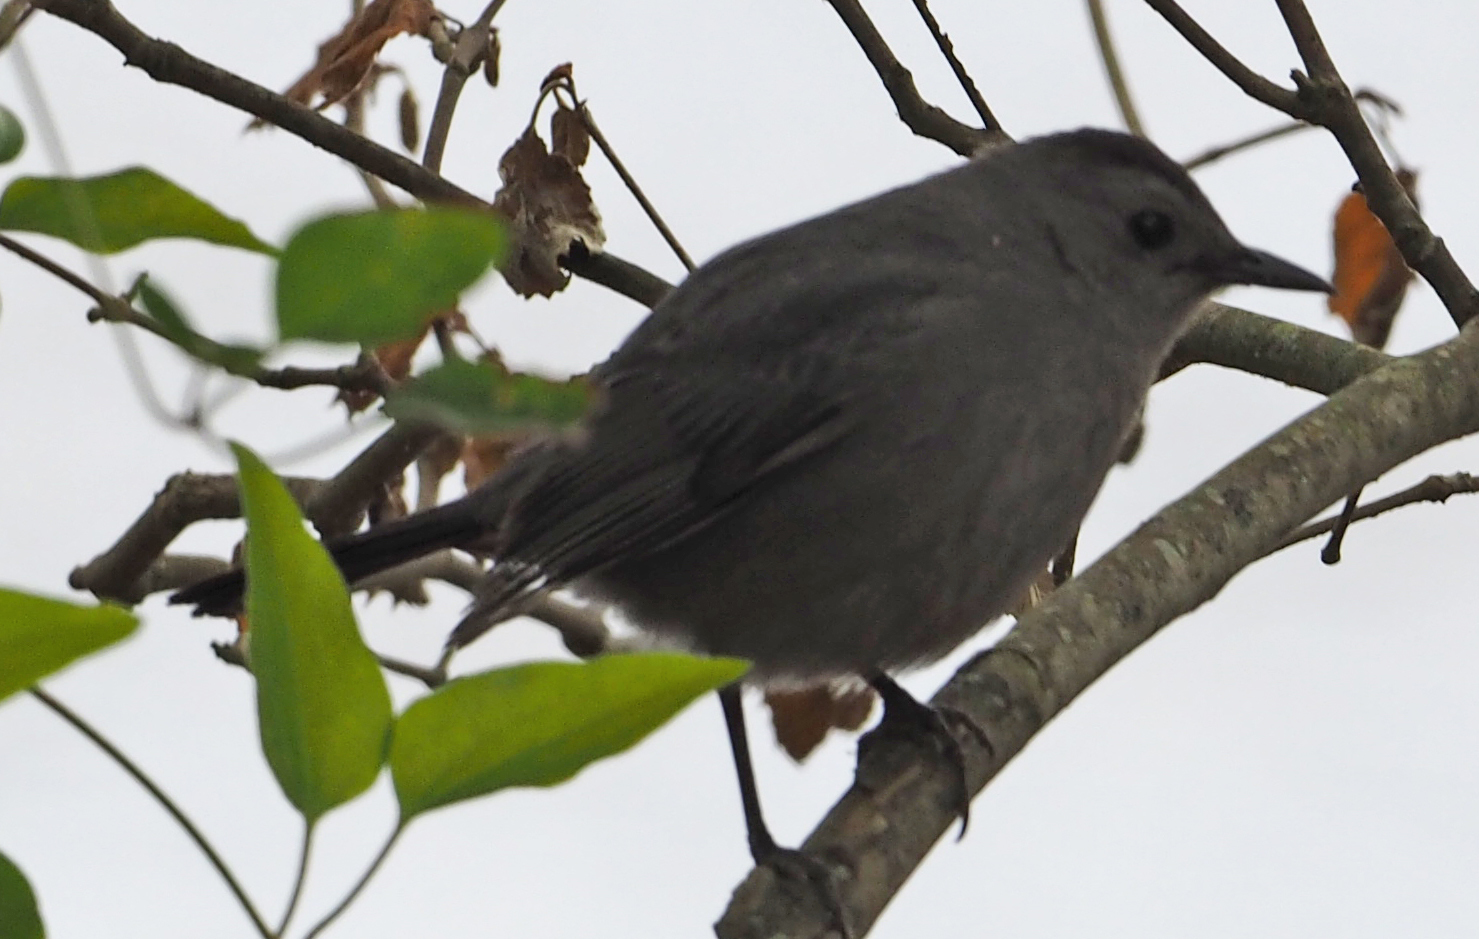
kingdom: Animalia
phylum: Chordata
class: Aves
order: Passeriformes
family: Mimidae
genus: Dumetella
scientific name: Dumetella carolinensis
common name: Gray catbird
